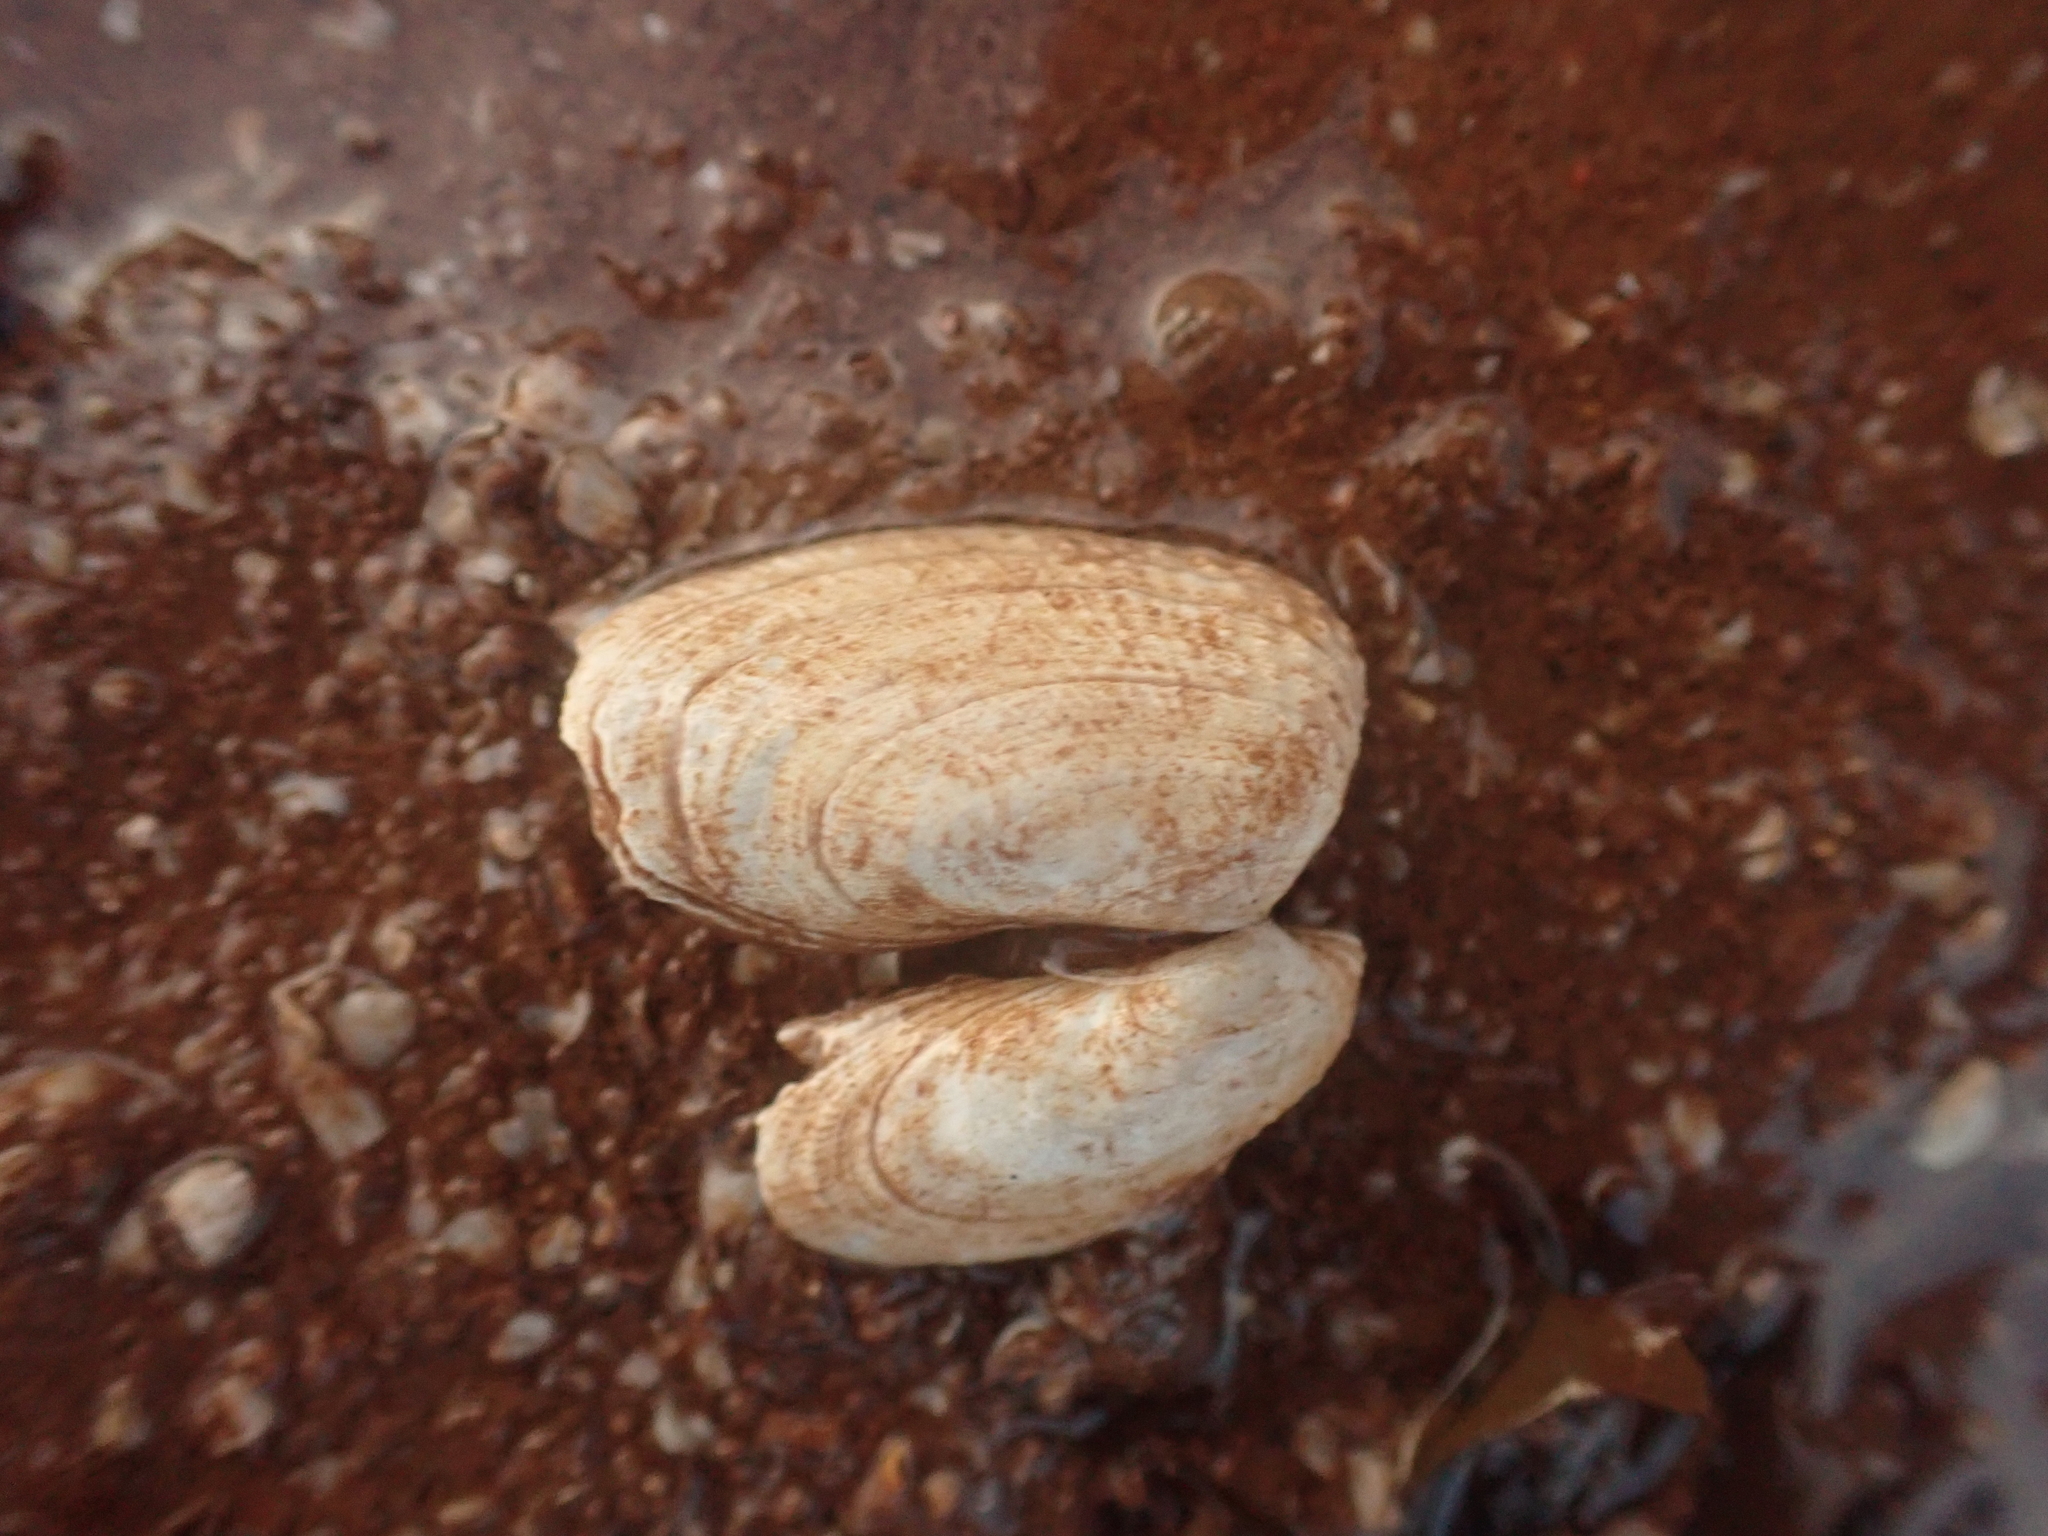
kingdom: Animalia
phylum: Mollusca
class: Bivalvia
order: Venerida
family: Veneridae
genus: Petricolaria
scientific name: Petricolaria pholadiformis
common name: American piddock
